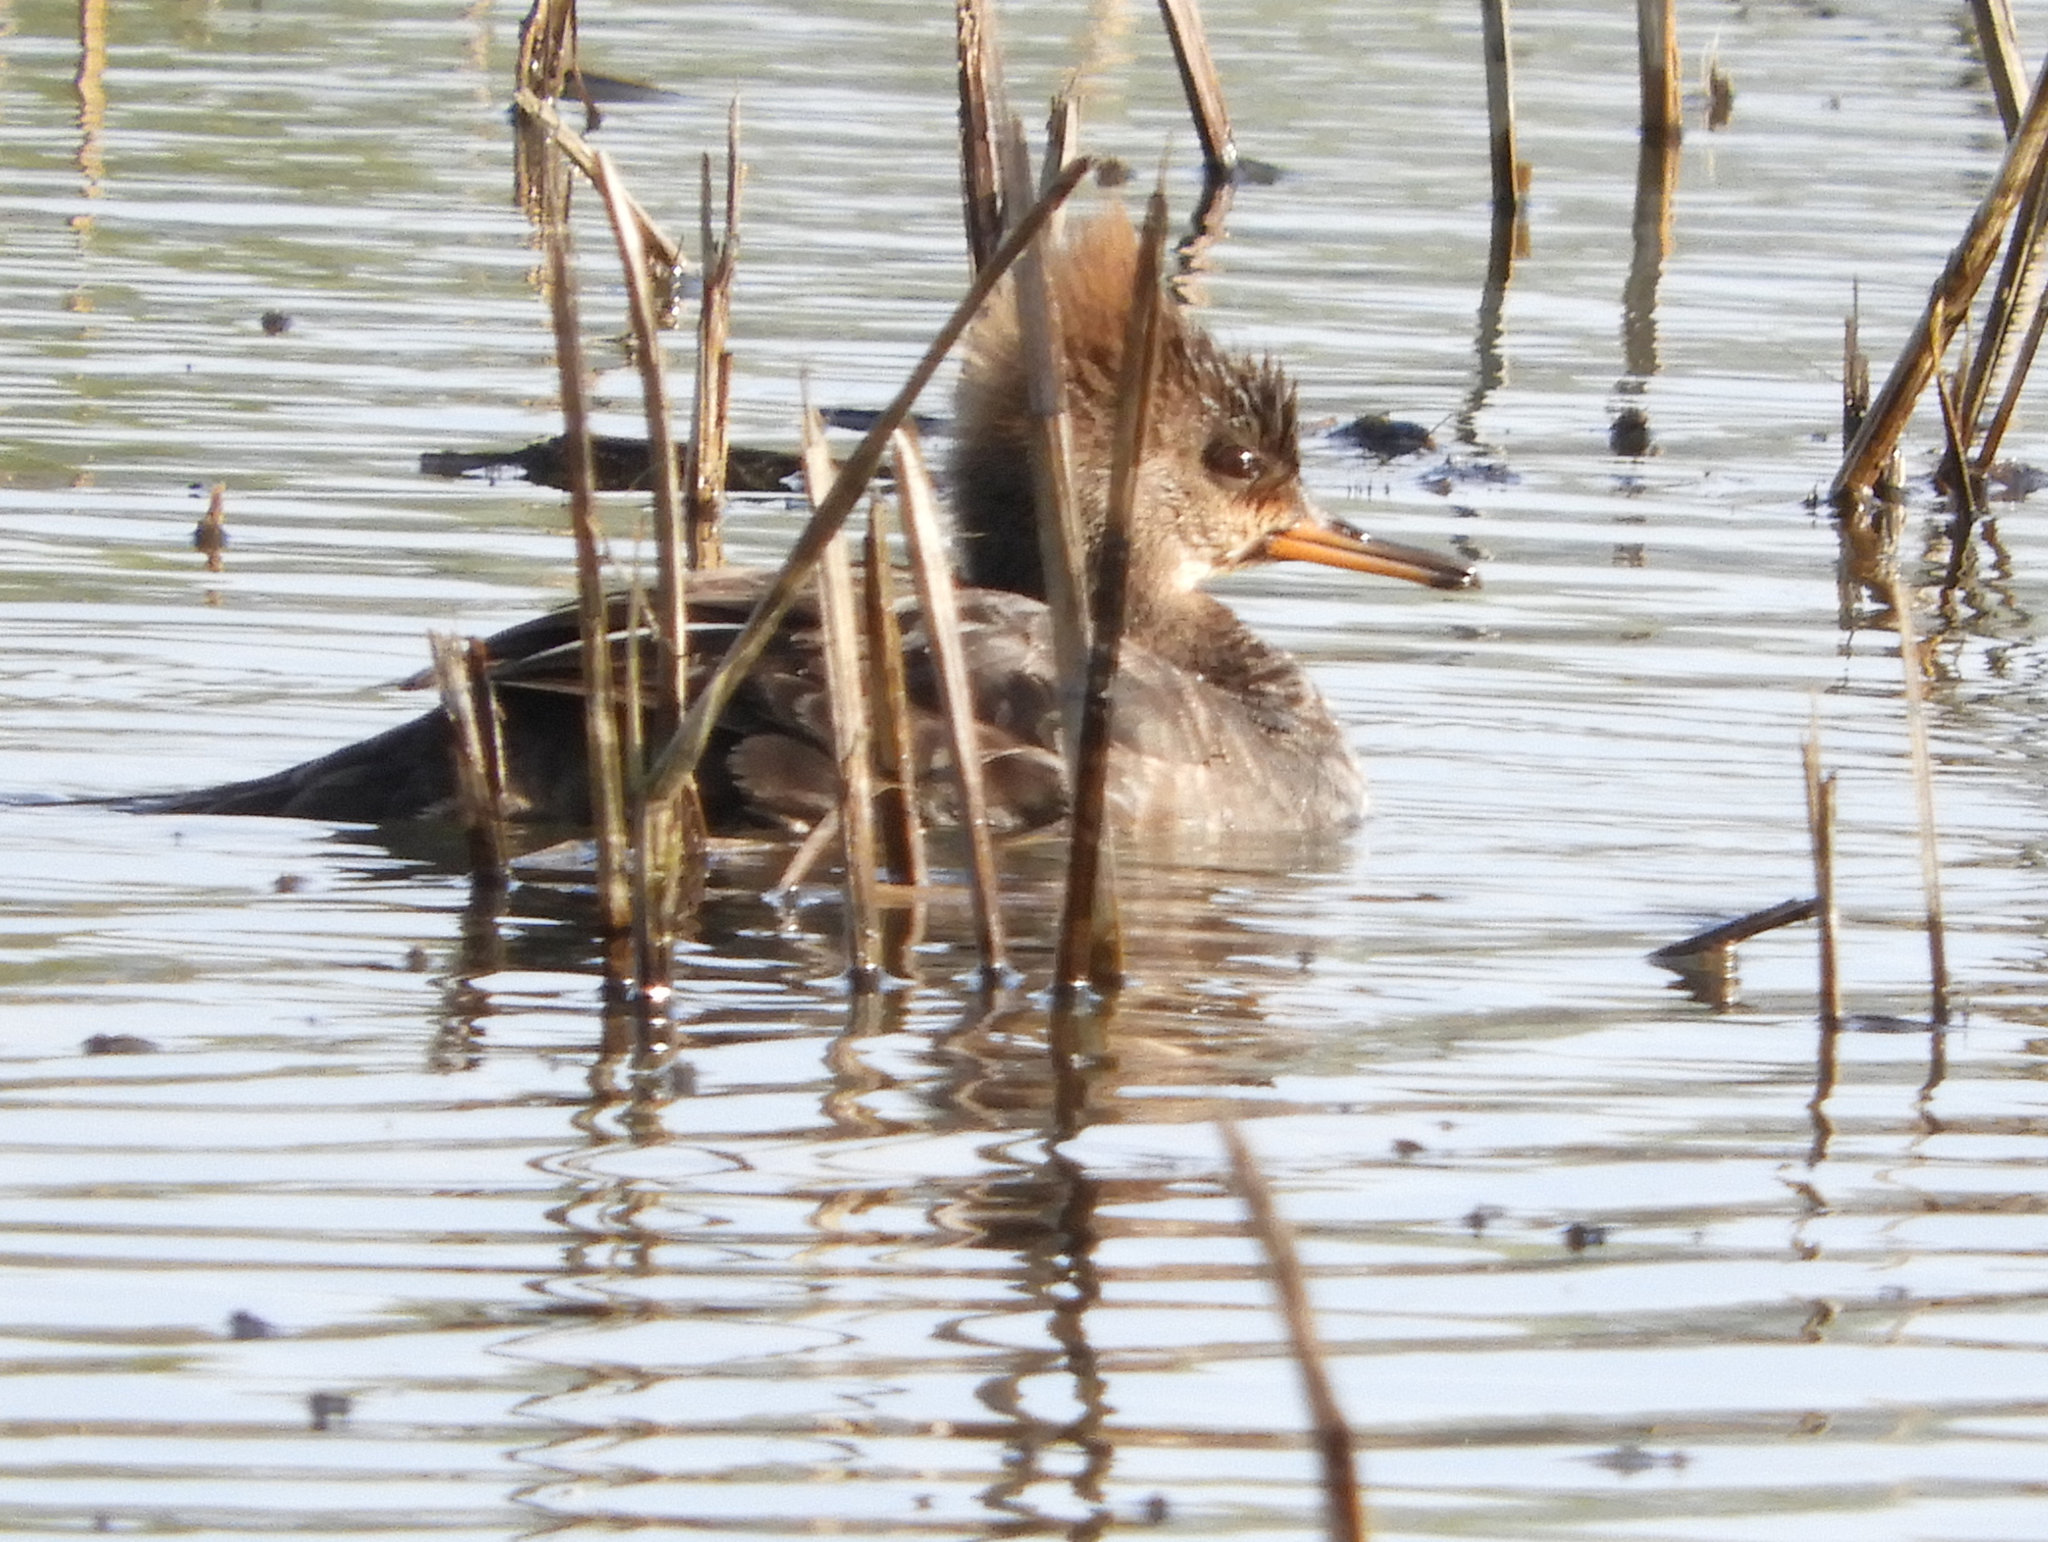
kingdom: Animalia
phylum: Chordata
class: Aves
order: Anseriformes
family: Anatidae
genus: Lophodytes
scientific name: Lophodytes cucullatus
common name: Hooded merganser
